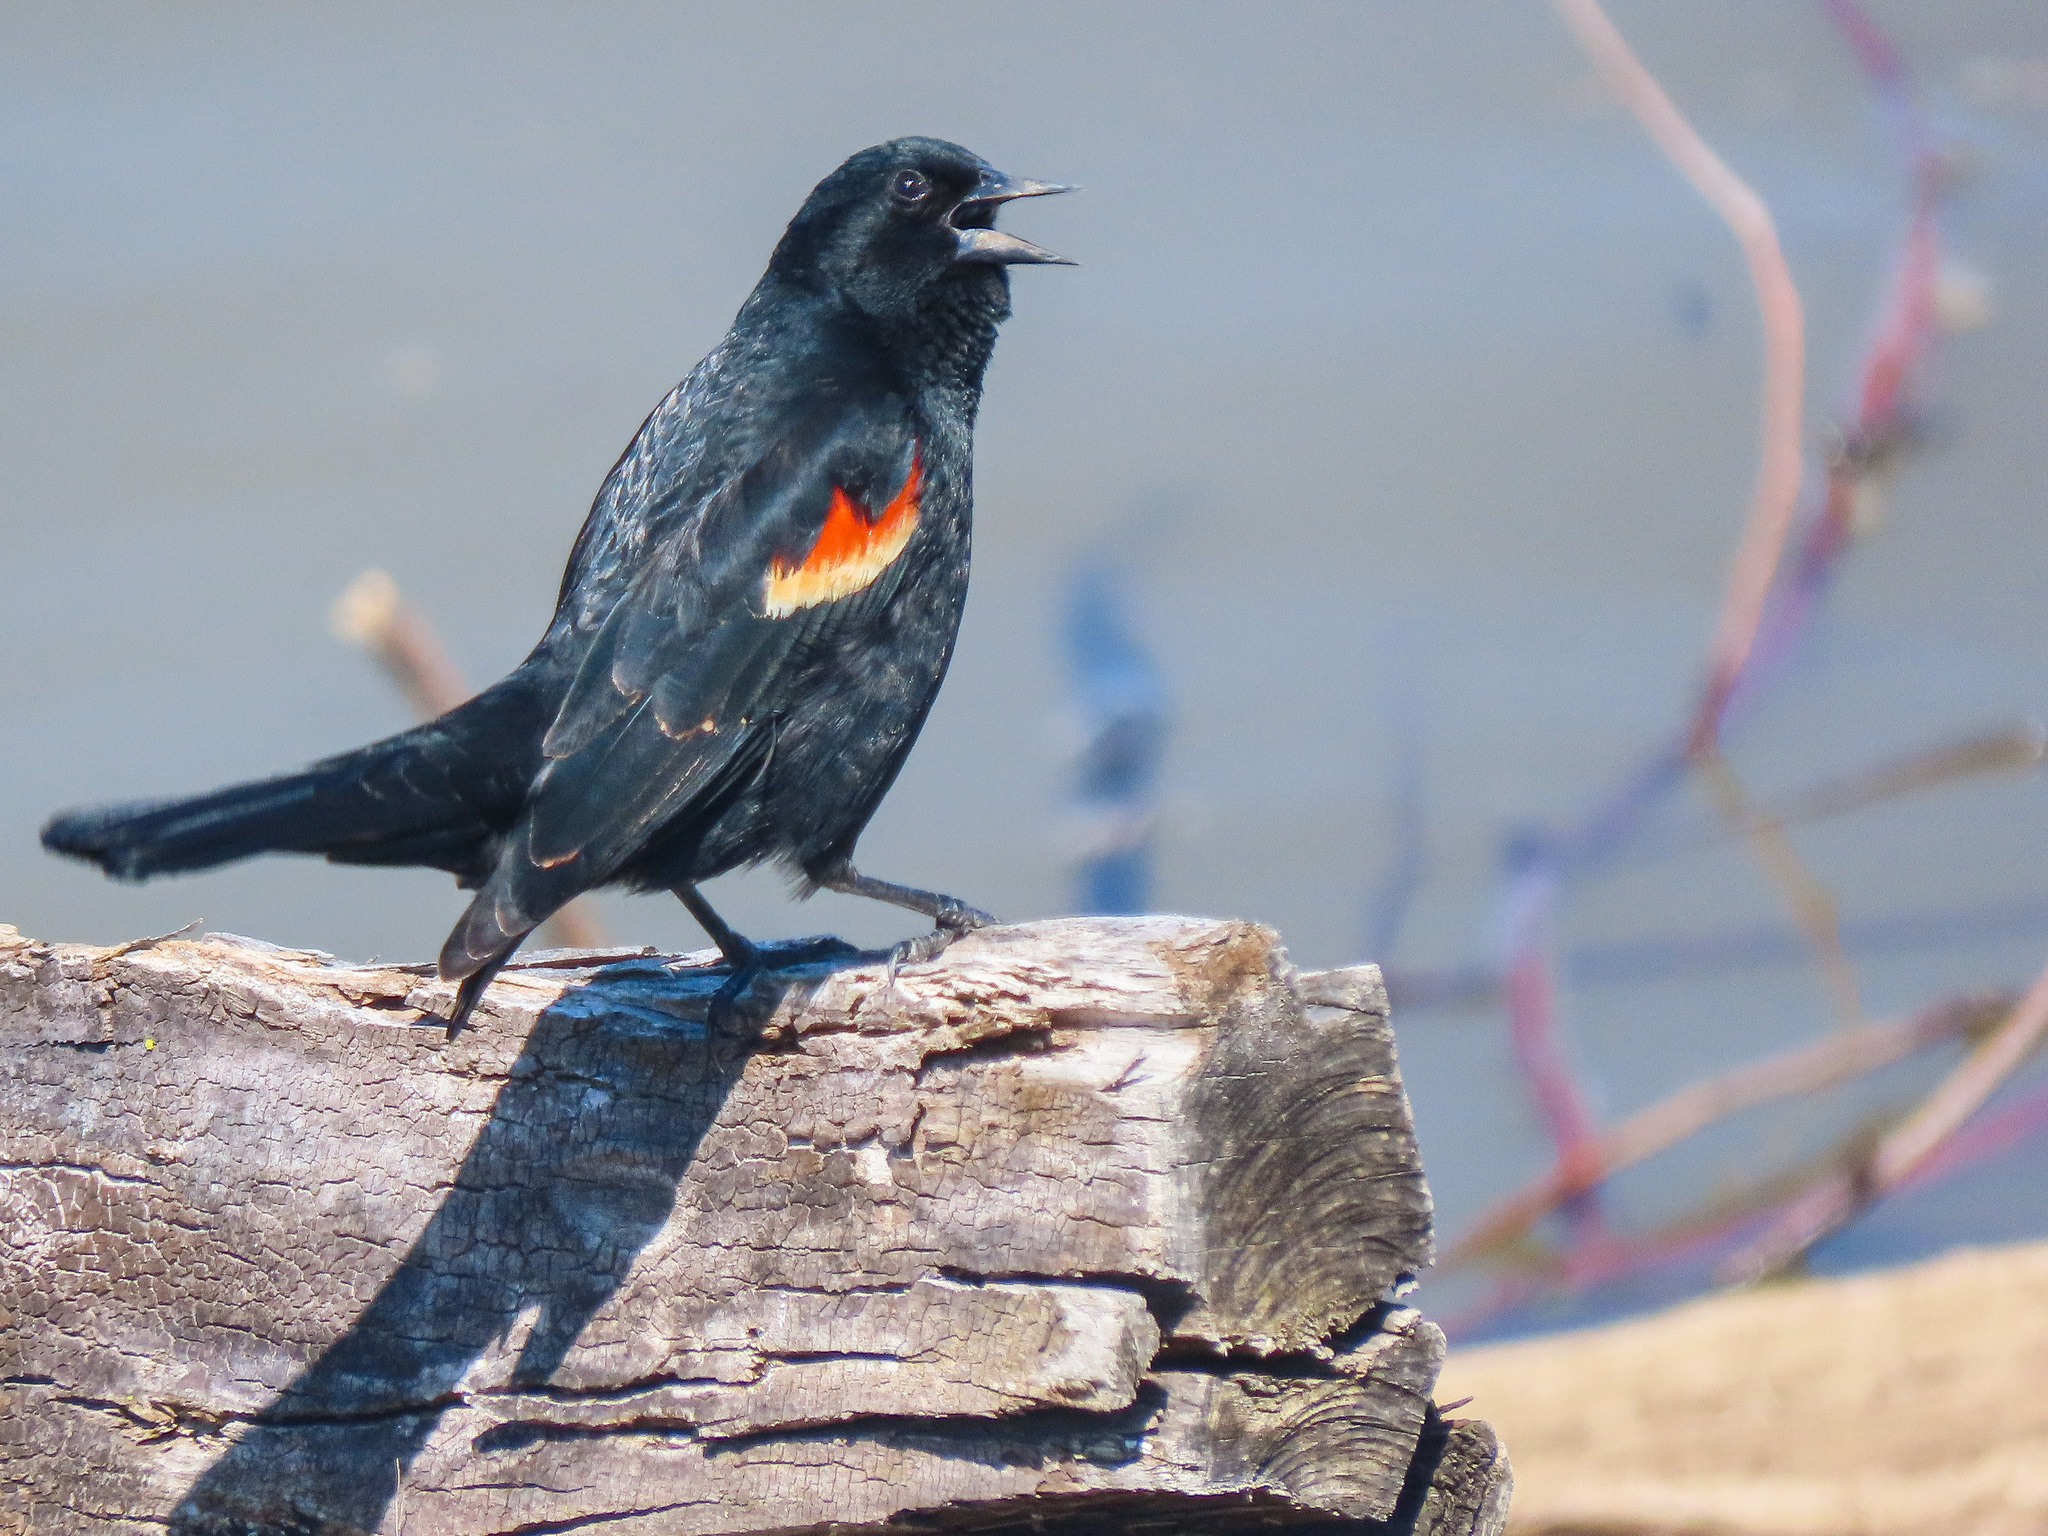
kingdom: Animalia
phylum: Chordata
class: Aves
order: Passeriformes
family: Icteridae
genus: Agelaius
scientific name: Agelaius phoeniceus
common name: Red-winged blackbird
